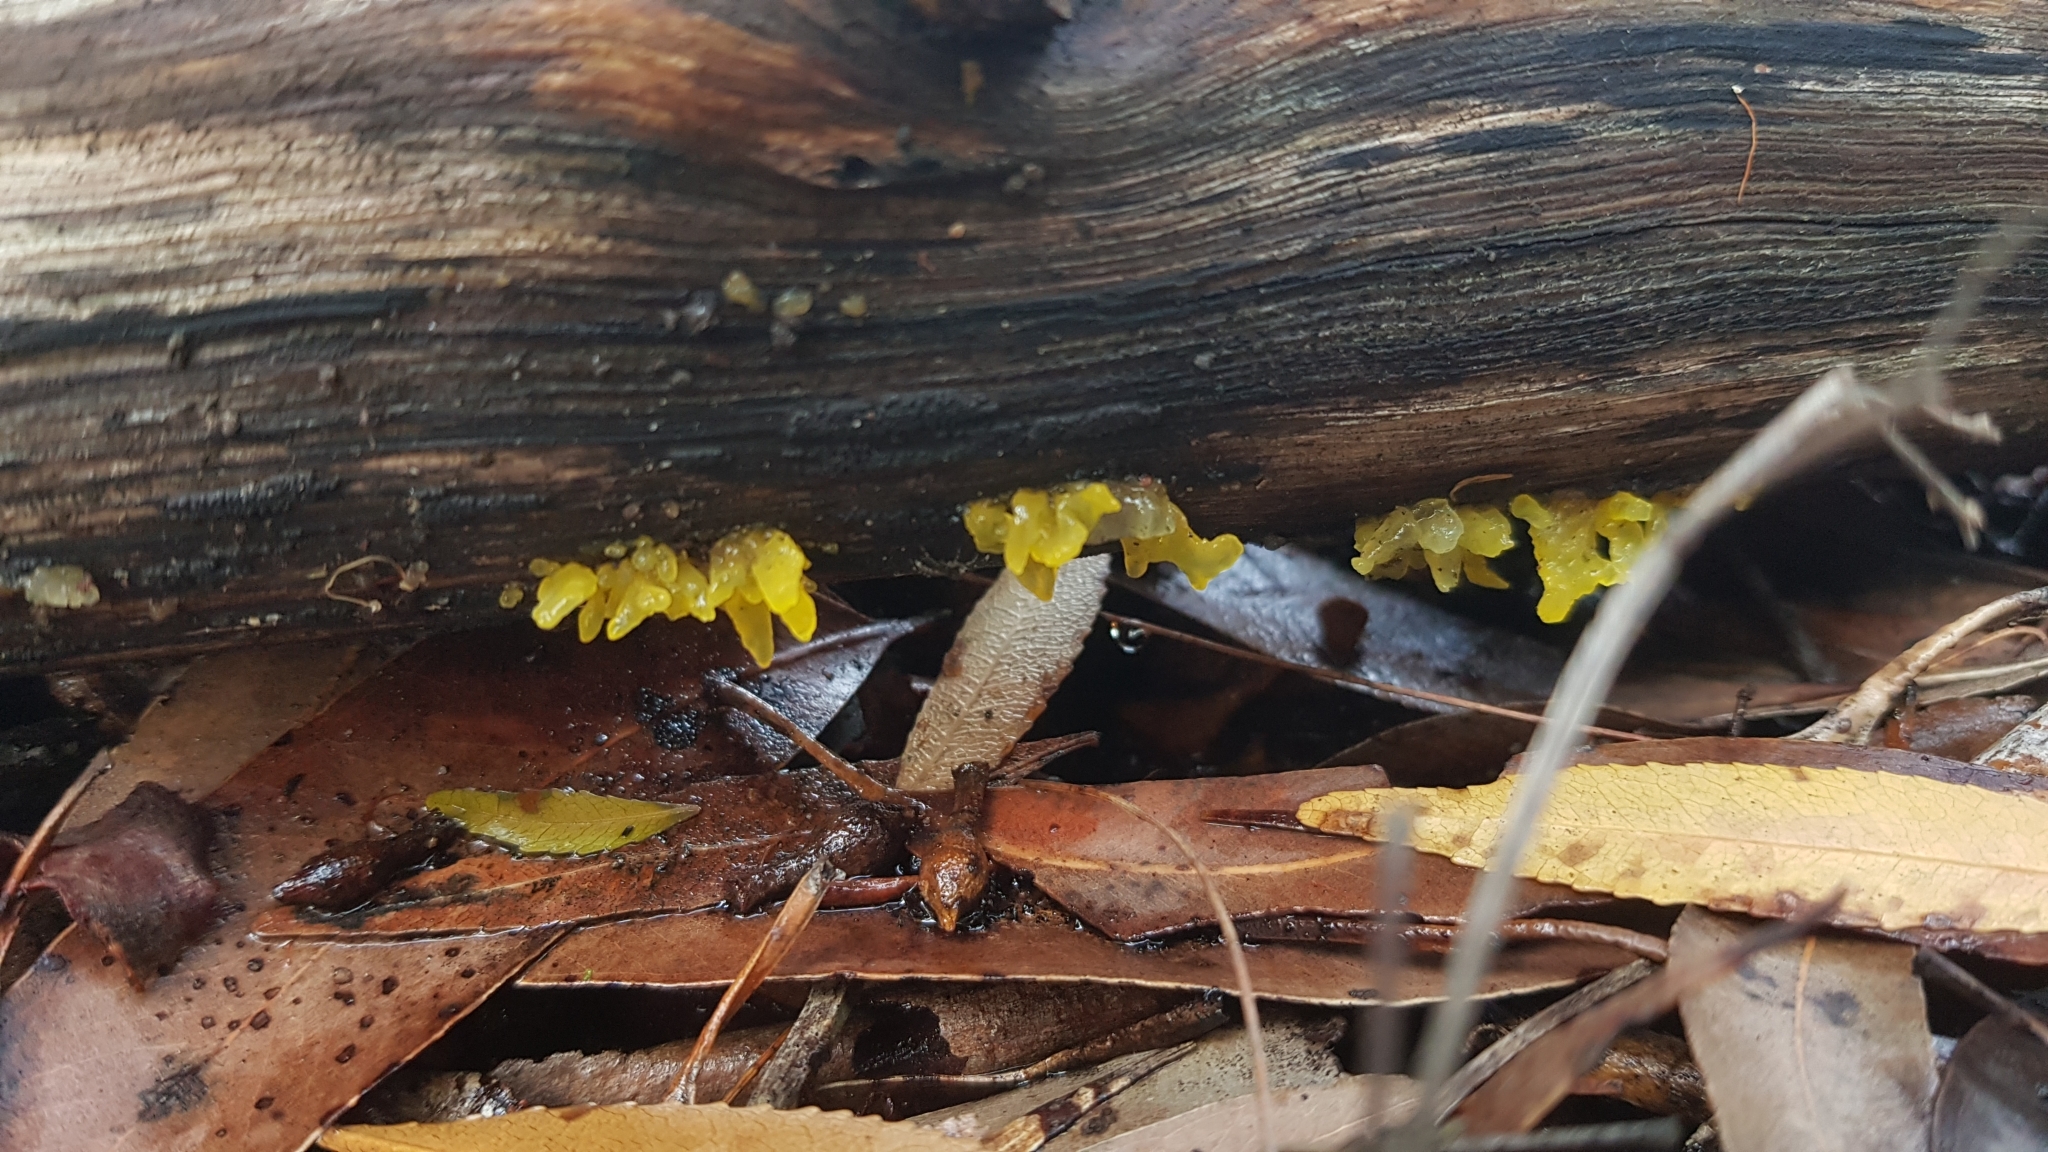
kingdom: Fungi
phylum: Basidiomycota
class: Tremellomycetes
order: Tremellales
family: Tremellaceae
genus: Tremella
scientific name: Tremella fuciformis
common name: Snow fungus
